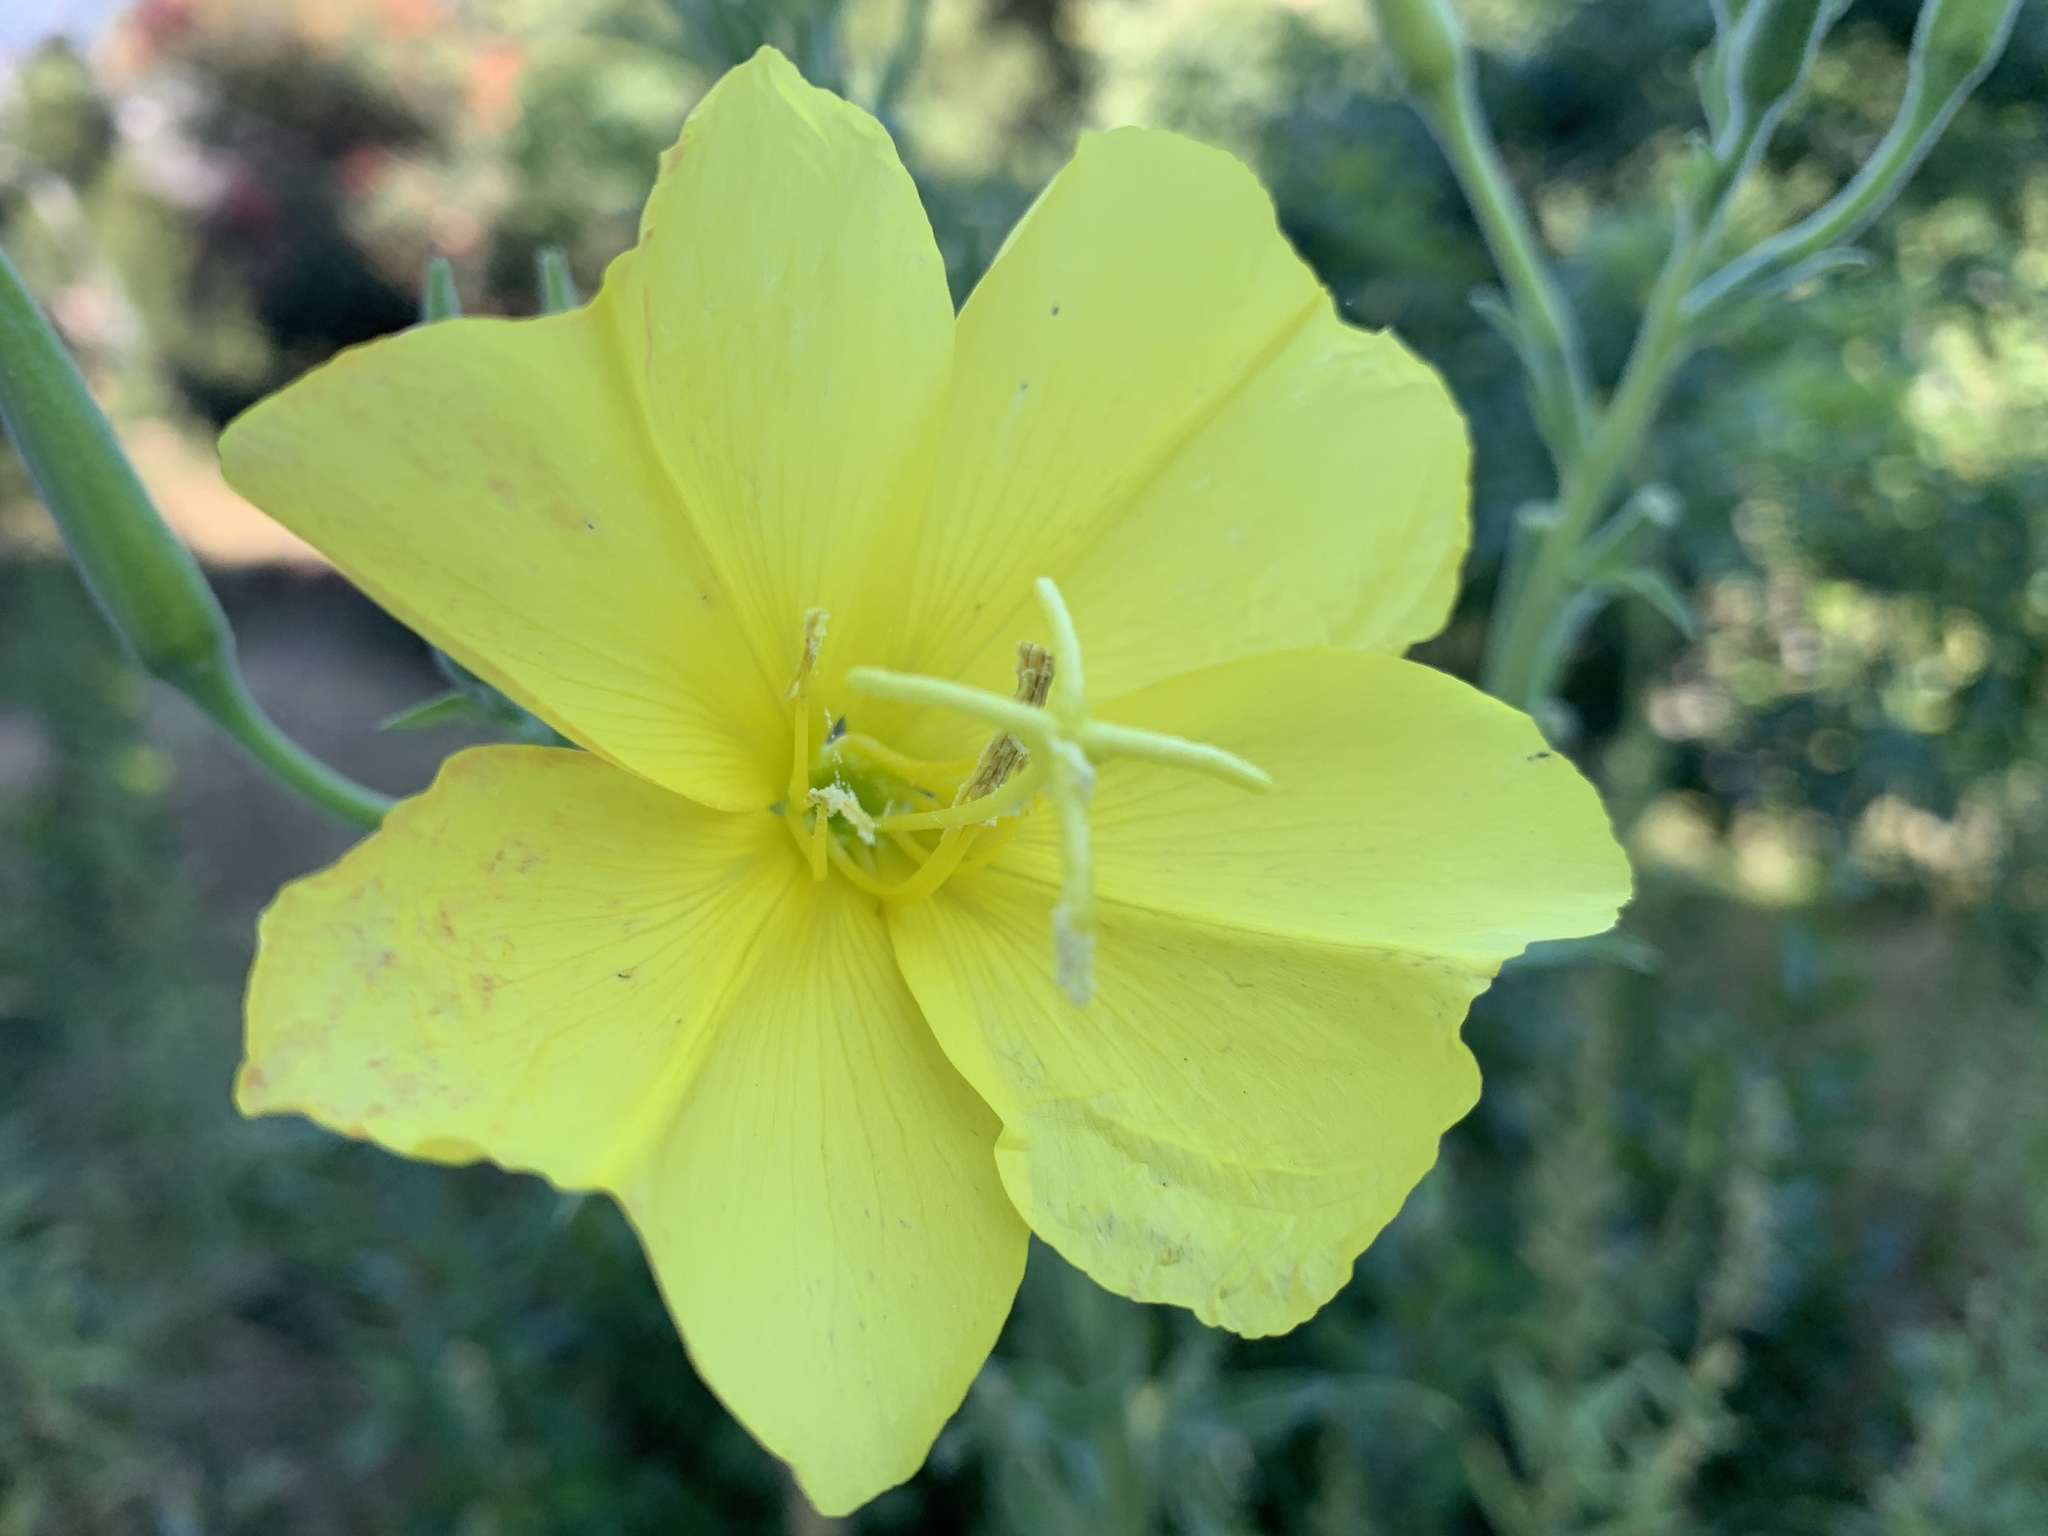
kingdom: Plantae
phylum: Tracheophyta
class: Magnoliopsida
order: Myrtales
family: Onagraceae
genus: Oenothera
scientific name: Oenothera elata
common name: Hooker's evening-primrose
